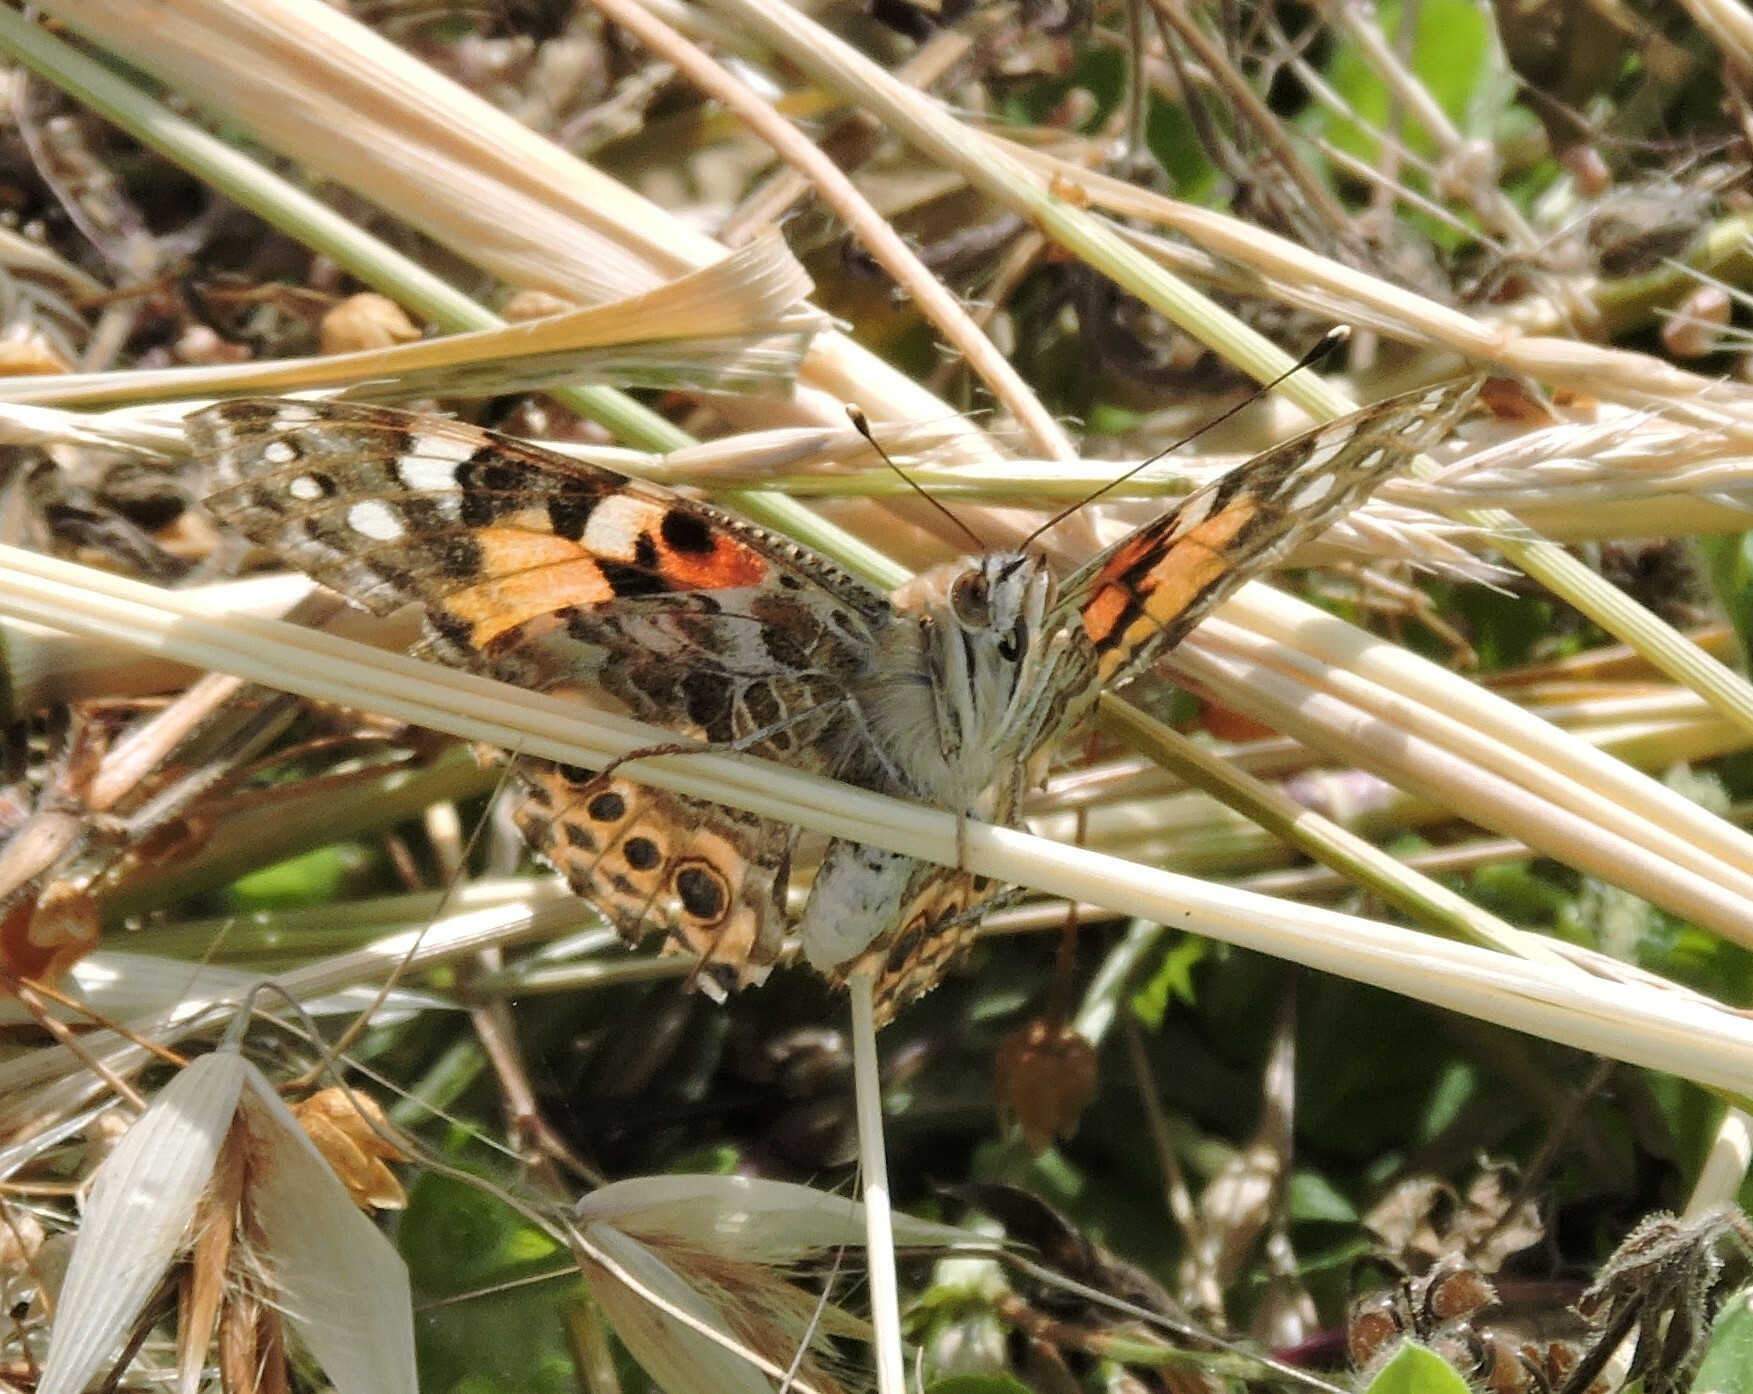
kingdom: Animalia
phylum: Arthropoda
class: Insecta
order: Lepidoptera
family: Nymphalidae
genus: Vanessa
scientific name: Vanessa cardui
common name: Painted lady
